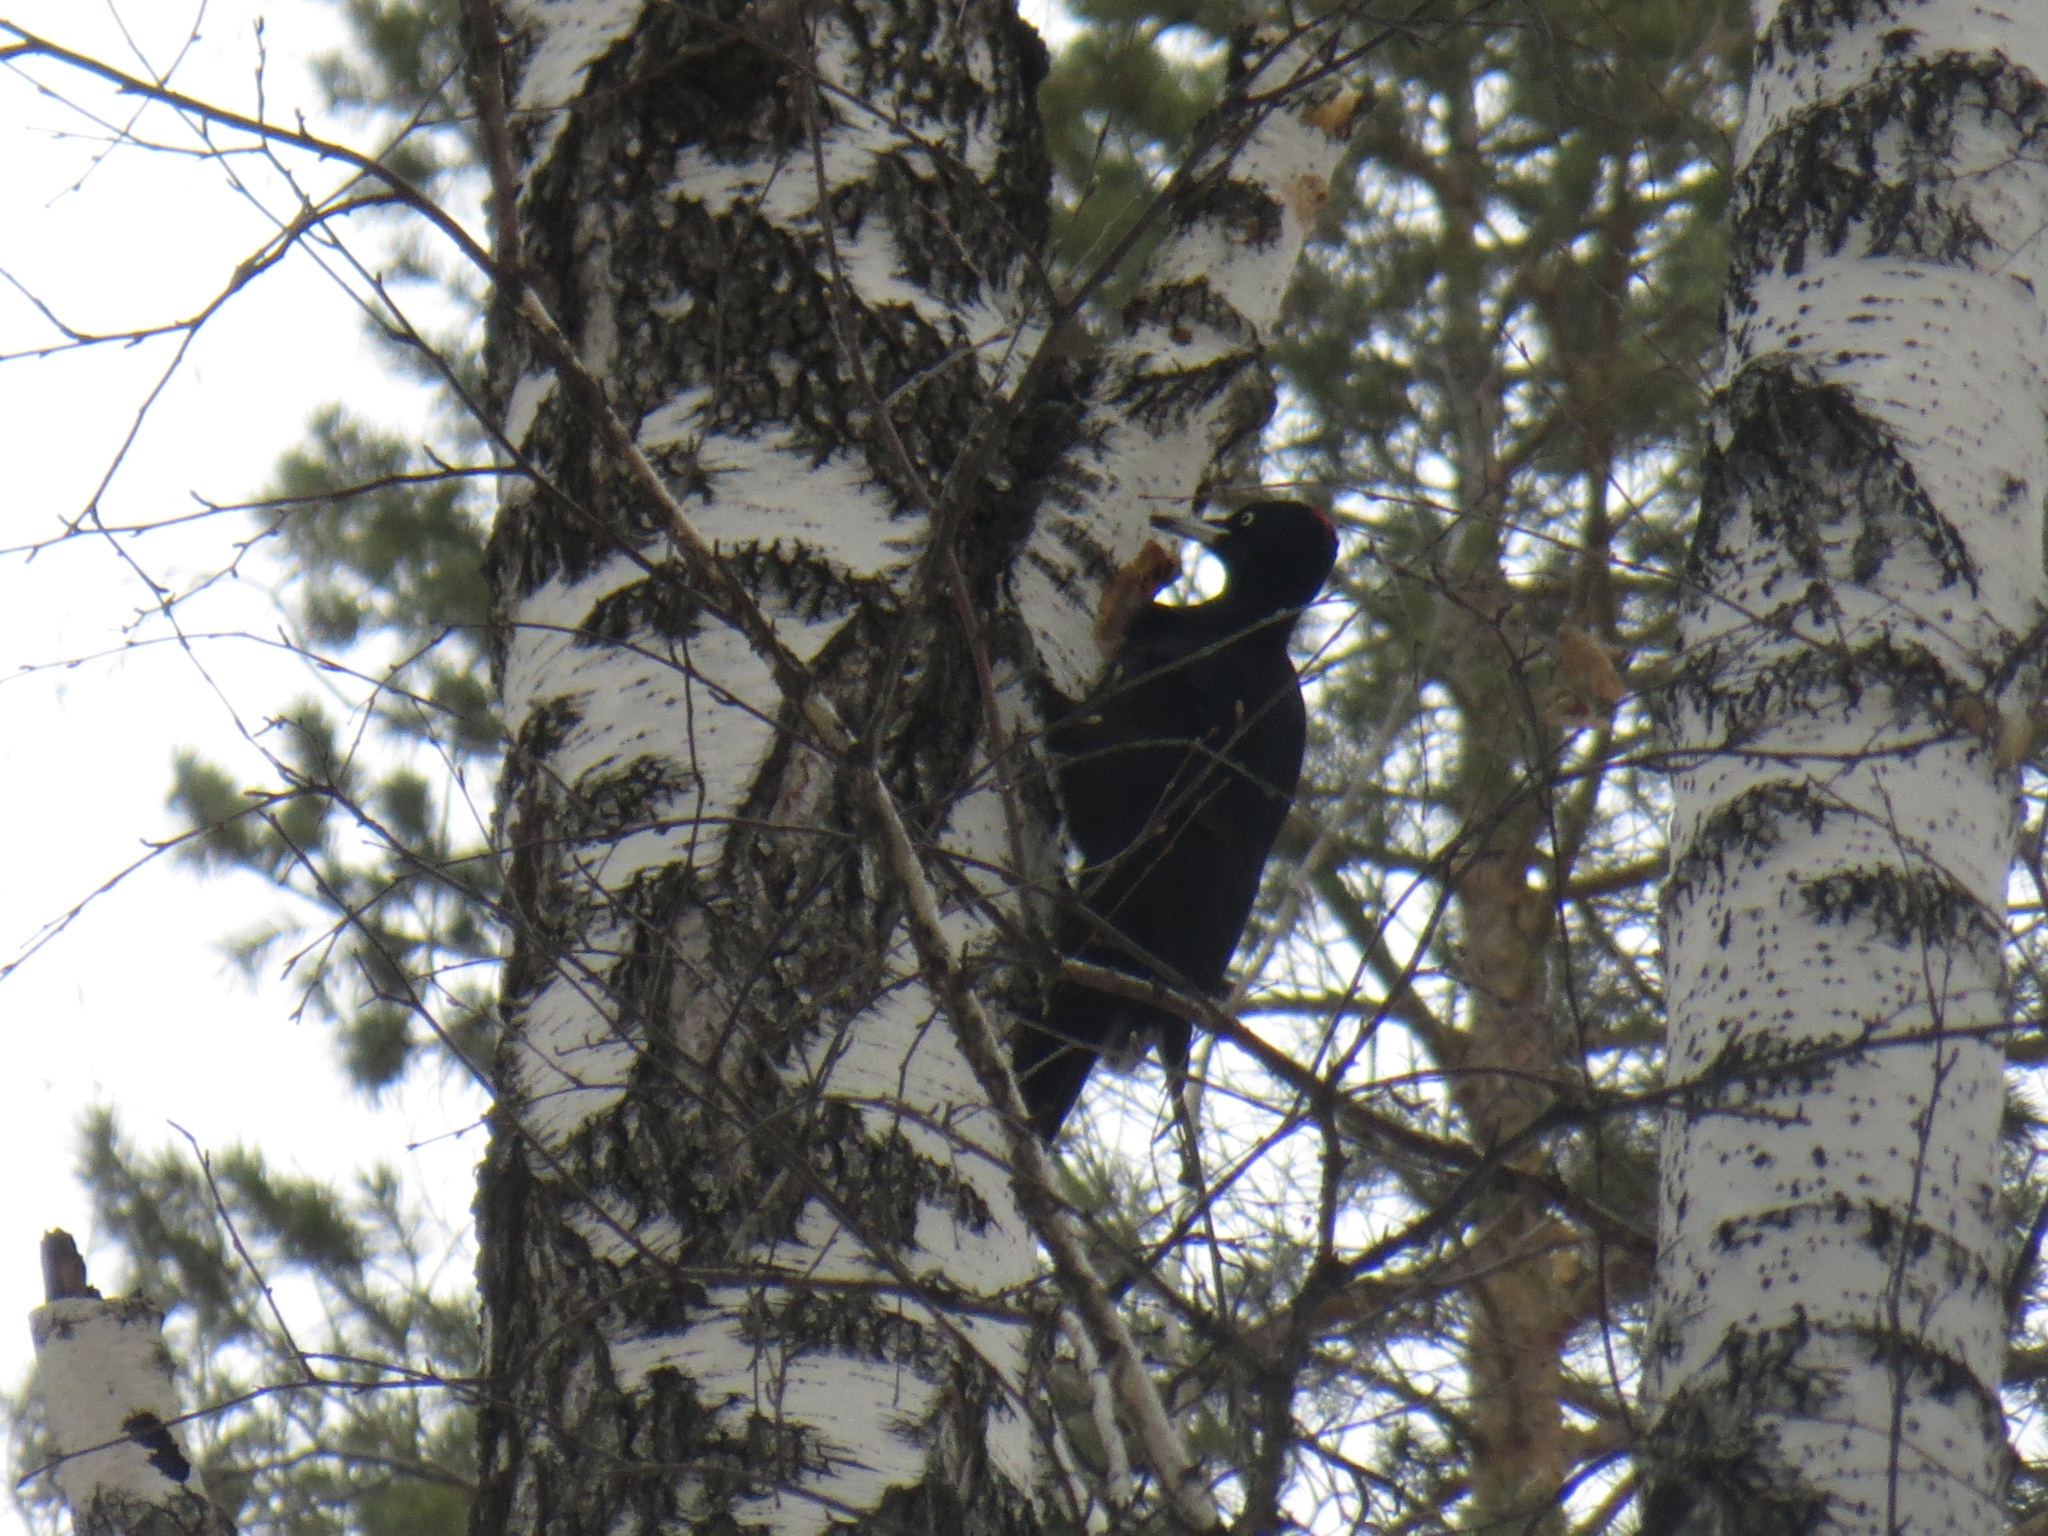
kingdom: Animalia
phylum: Chordata
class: Aves
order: Piciformes
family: Picidae
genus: Dryocopus
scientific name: Dryocopus martius
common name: Black woodpecker
